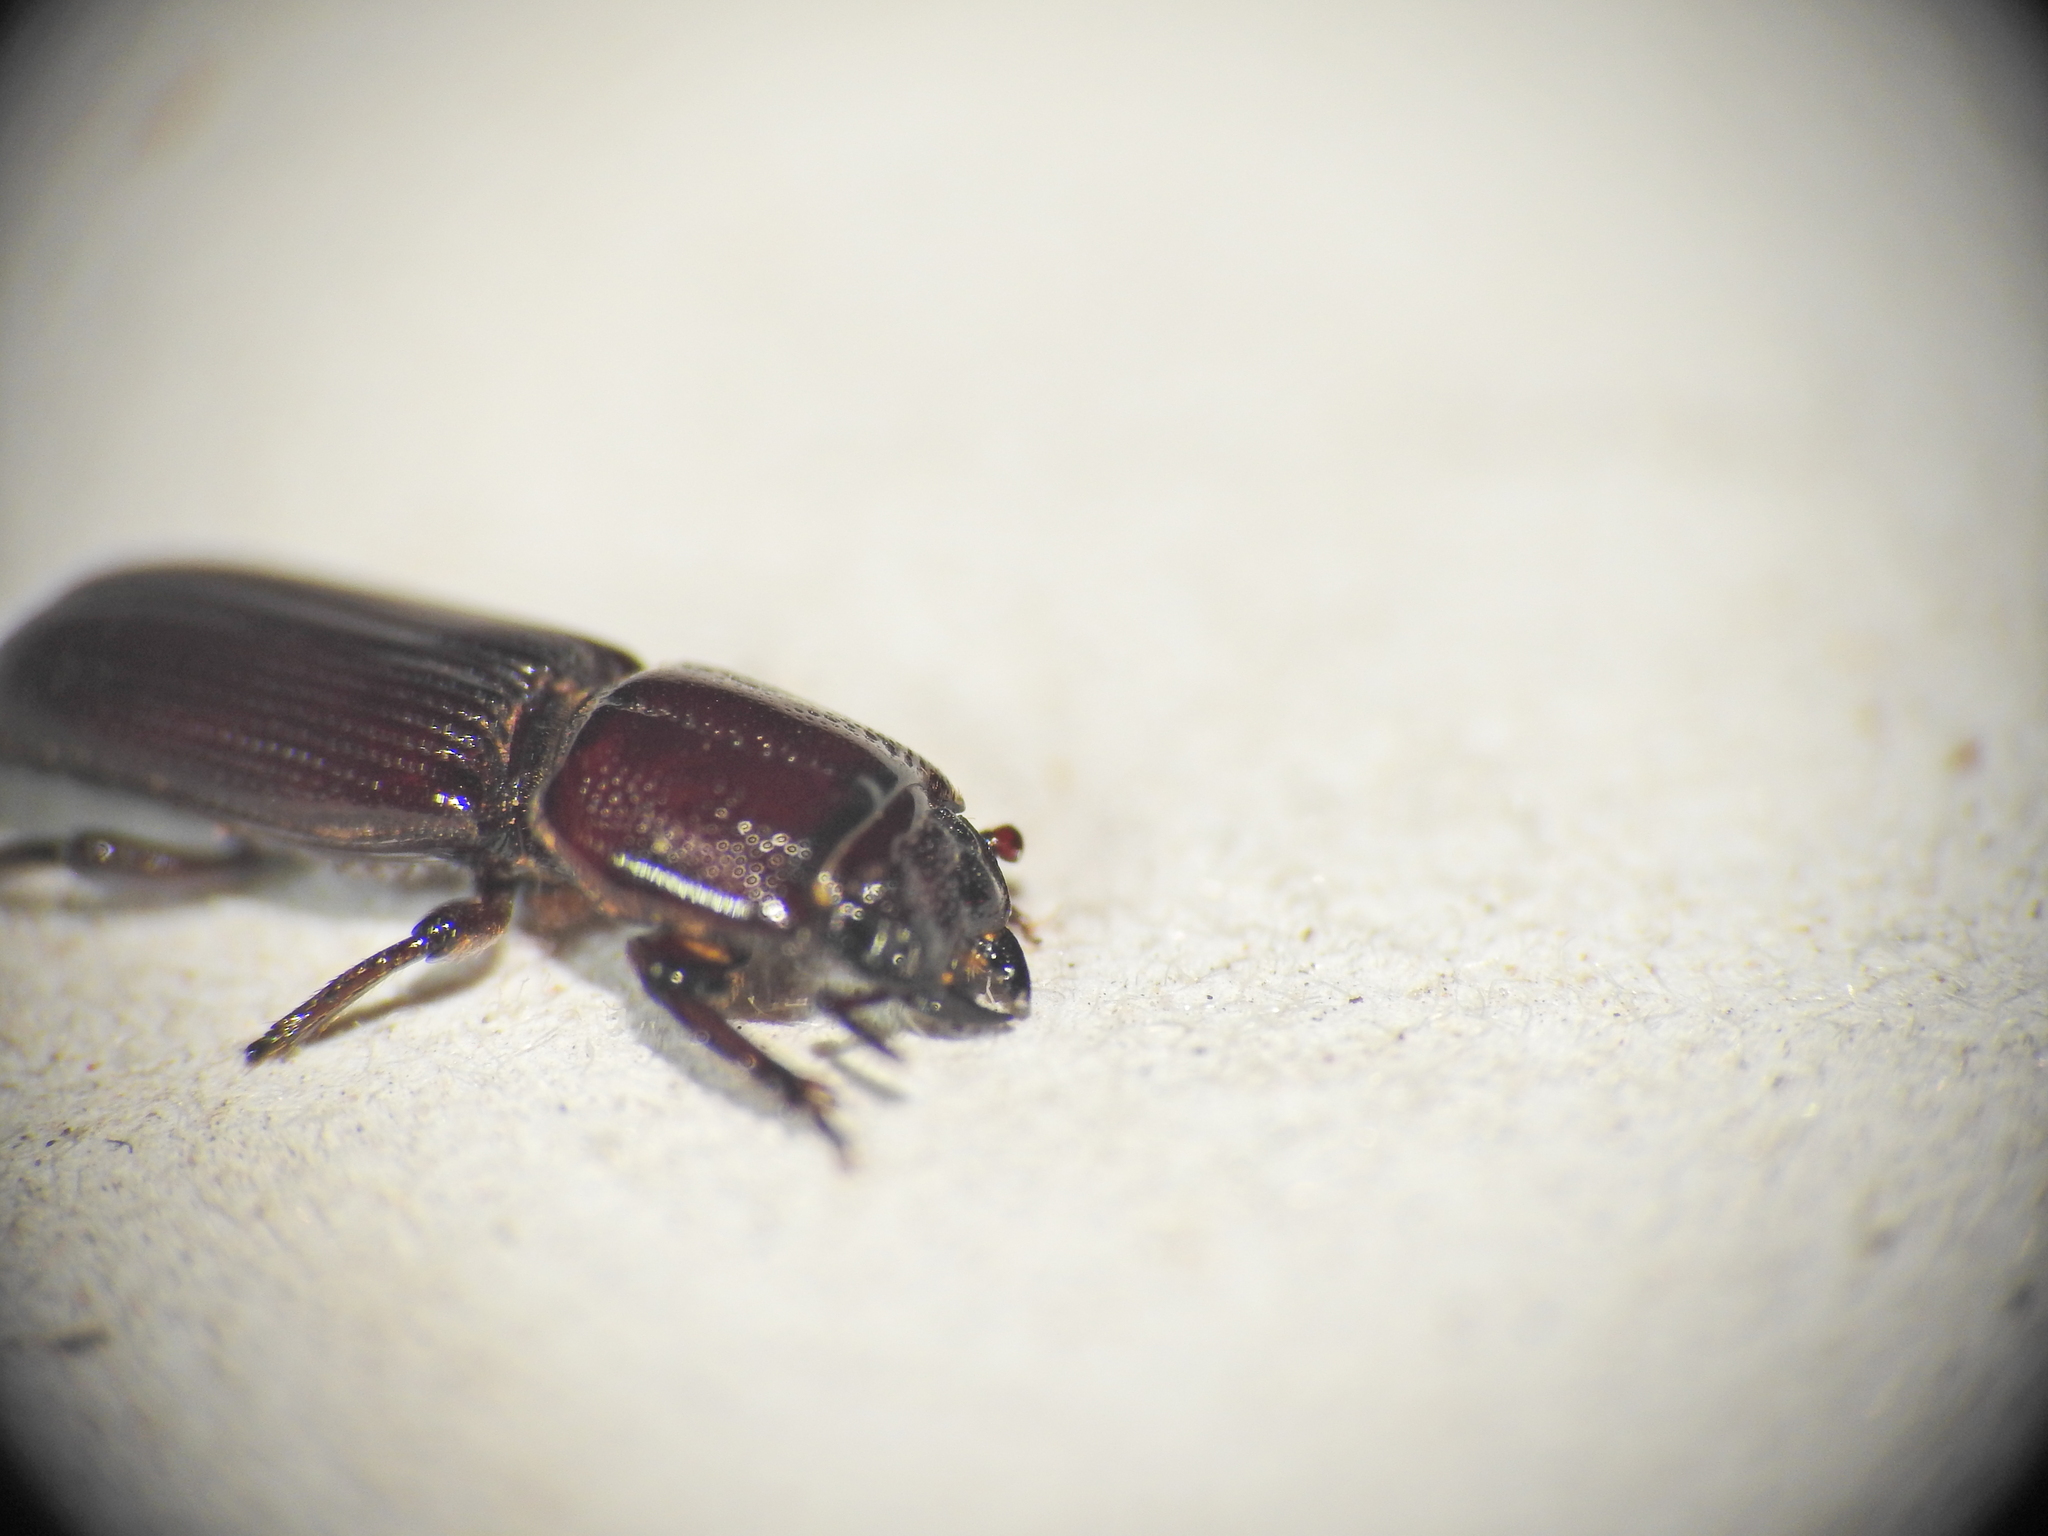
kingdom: Animalia
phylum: Arthropoda
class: Insecta
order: Coleoptera
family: Lucanidae
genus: Figulus
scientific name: Figulus lilliputanus
